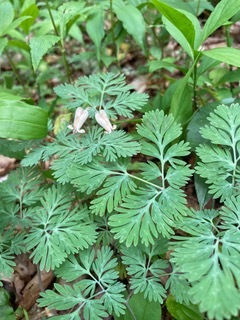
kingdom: Plantae
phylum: Tracheophyta
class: Magnoliopsida
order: Ranunculales
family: Papaveraceae
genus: Dicentra
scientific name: Dicentra canadensis
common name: Squirrel-corn
